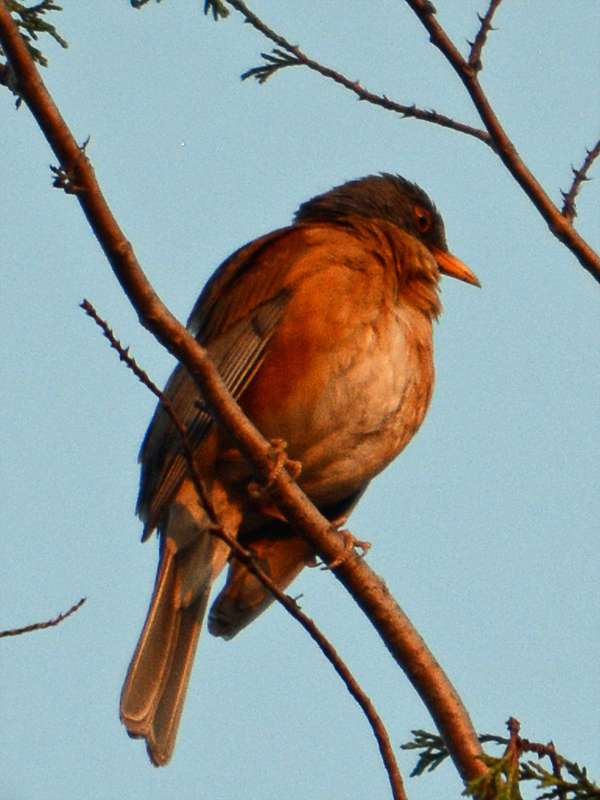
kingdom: Animalia
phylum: Chordata
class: Aves
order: Passeriformes
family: Turdidae
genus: Turdus
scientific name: Turdus rufopalliatus
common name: Rufous-backed robin
